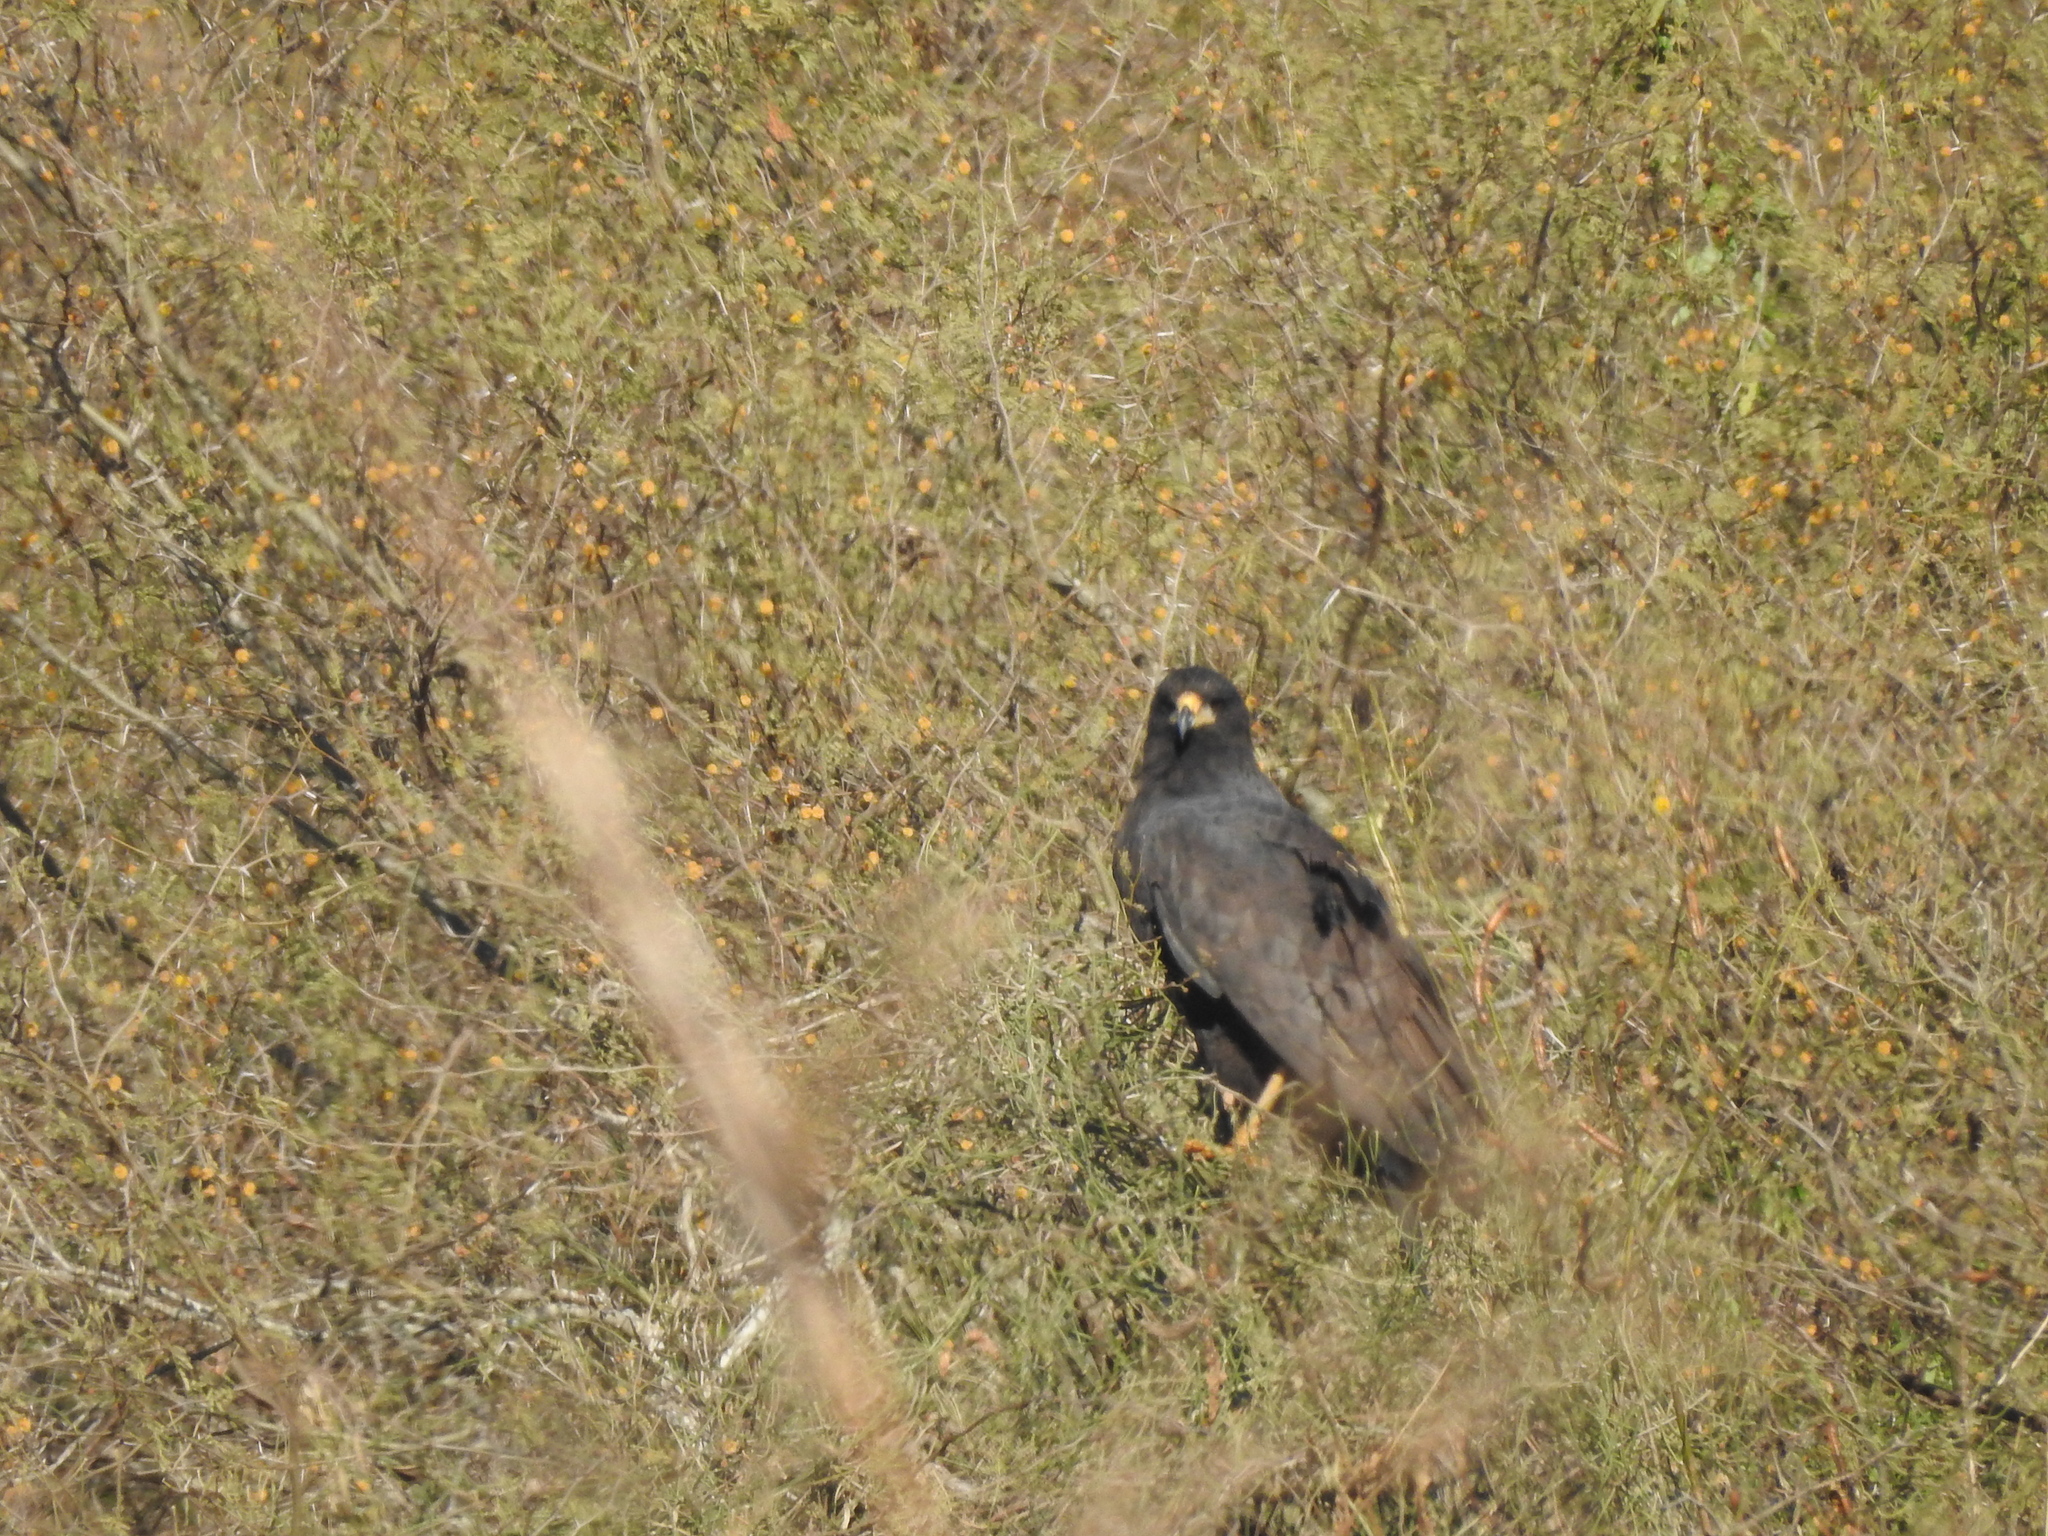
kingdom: Animalia
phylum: Chordata
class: Aves
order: Accipitriformes
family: Accipitridae
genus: Buteogallus
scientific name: Buteogallus urubitinga
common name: Great black hawk
